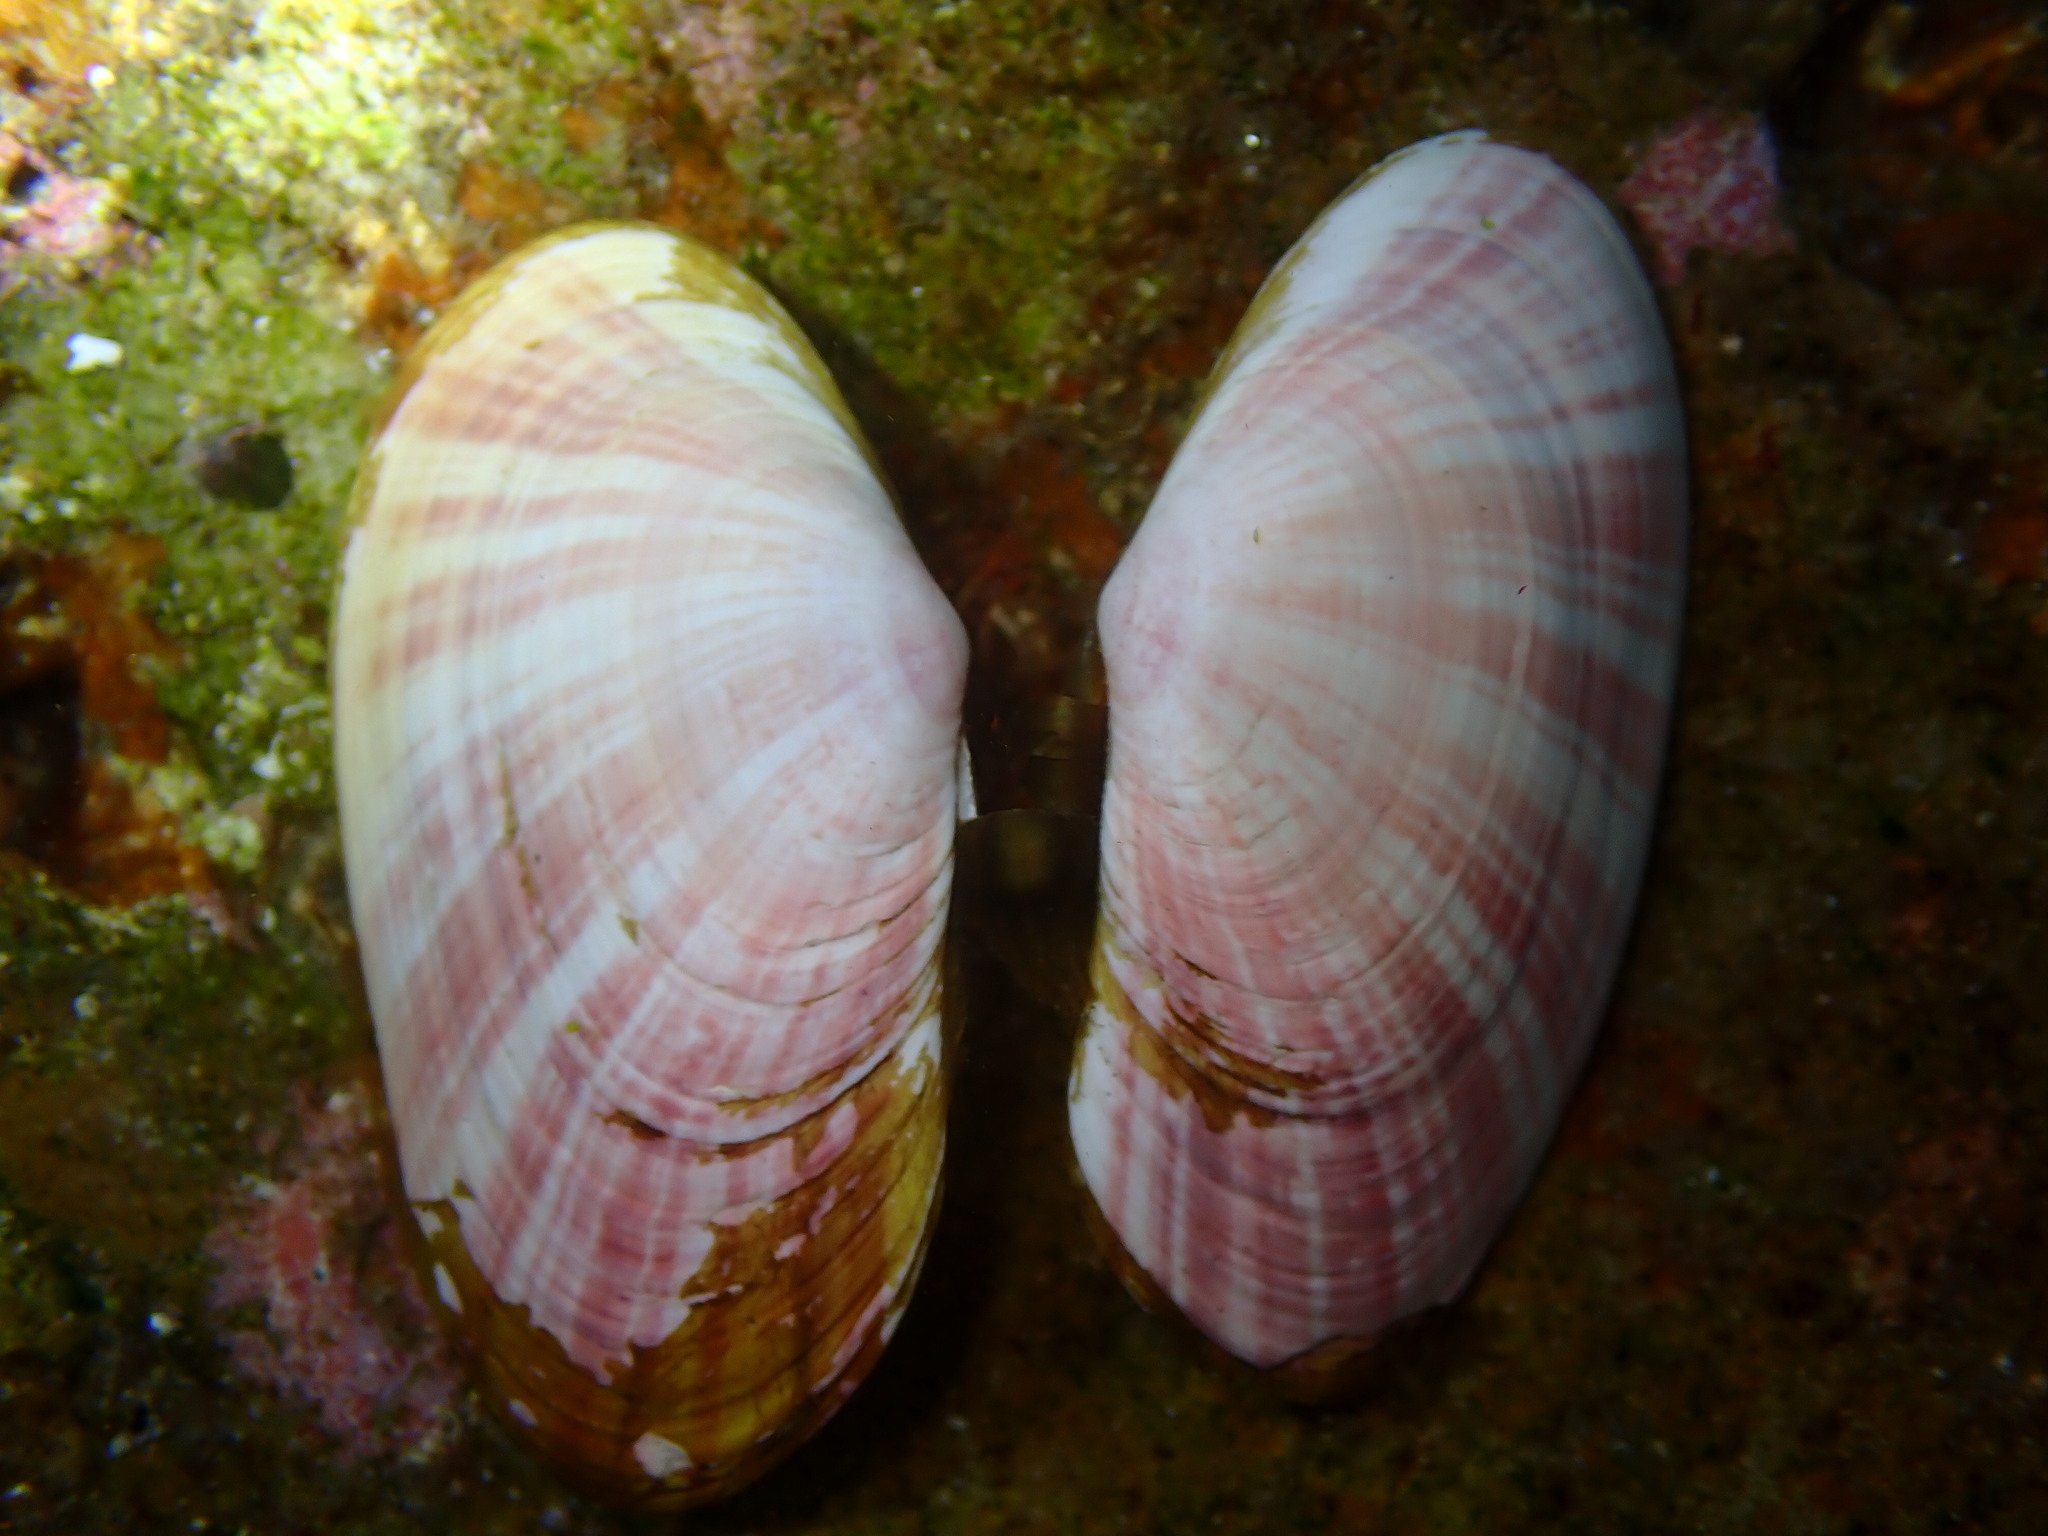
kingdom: Animalia
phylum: Mollusca
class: Bivalvia
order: Cardiida
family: Psammobiidae
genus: Gari
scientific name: Gari californica
